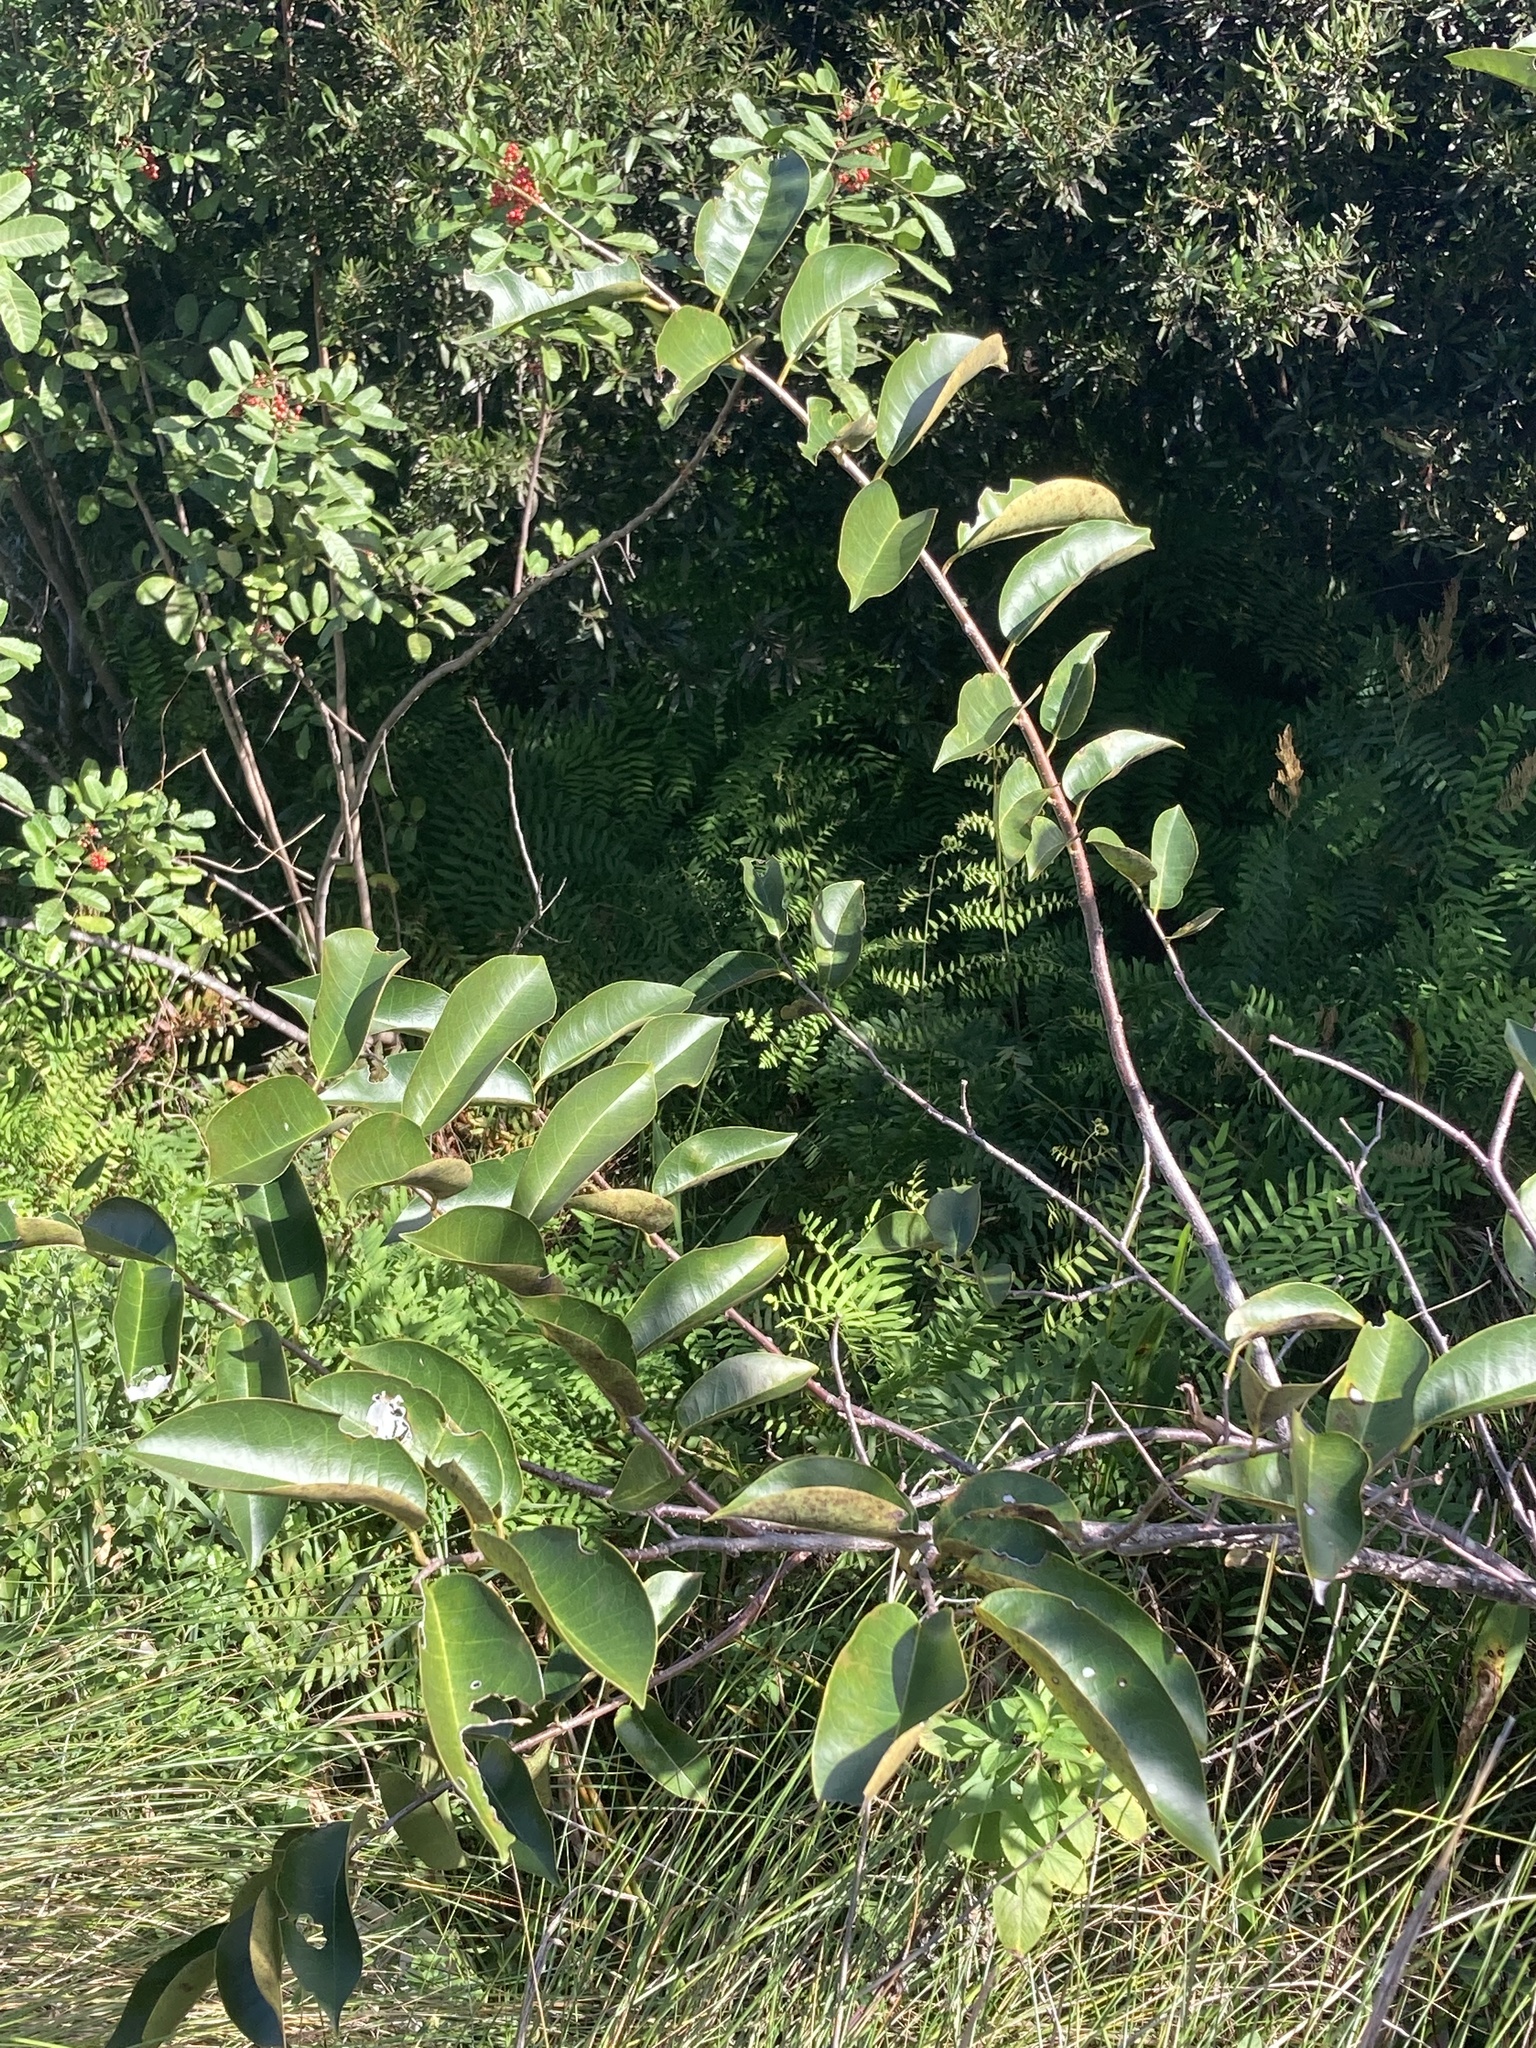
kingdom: Plantae
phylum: Tracheophyta
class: Magnoliopsida
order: Magnoliales
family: Annonaceae
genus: Annona
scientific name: Annona glabra
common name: Monkey apple
